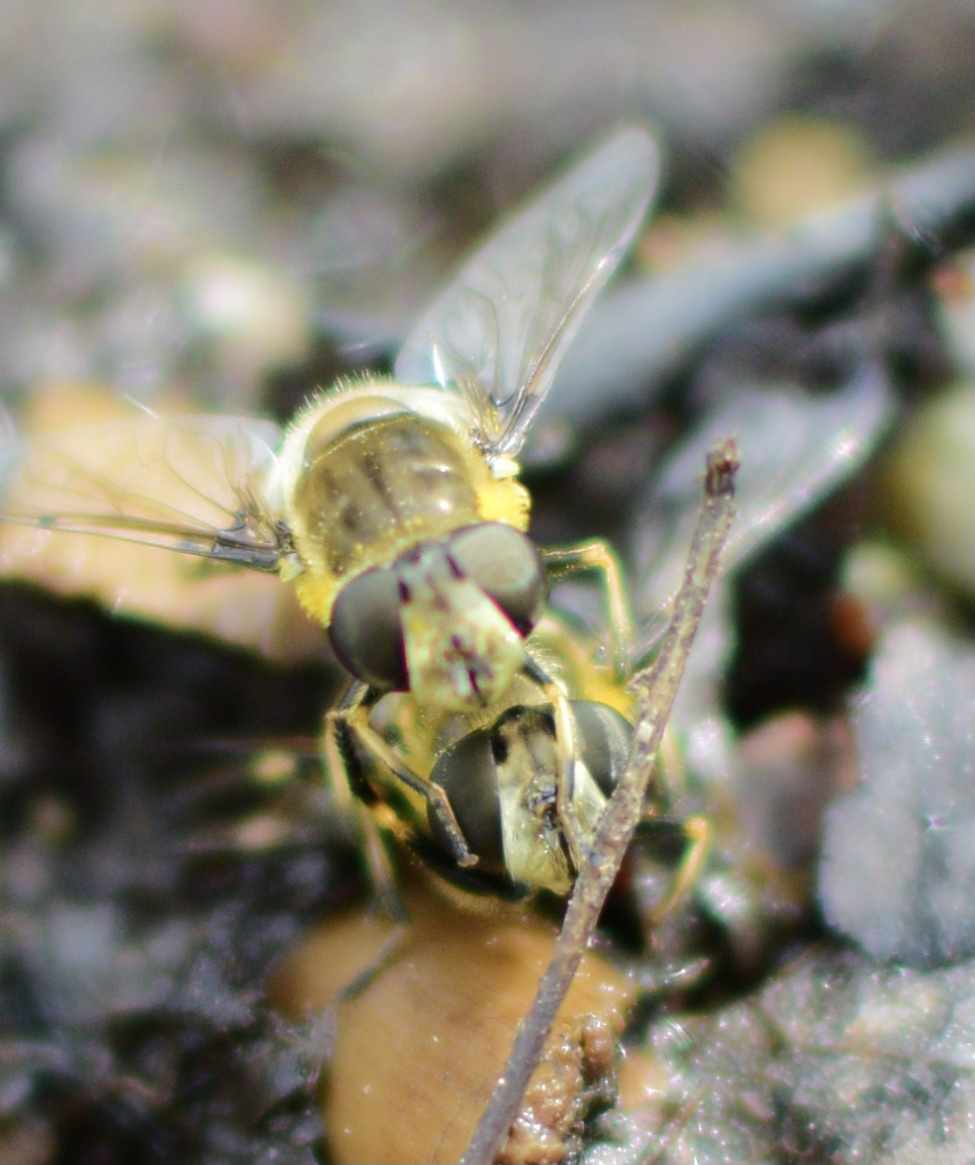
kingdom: Animalia
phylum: Arthropoda
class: Insecta
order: Diptera
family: Syrphidae
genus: Eristalis
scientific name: Eristalis dimidiata
